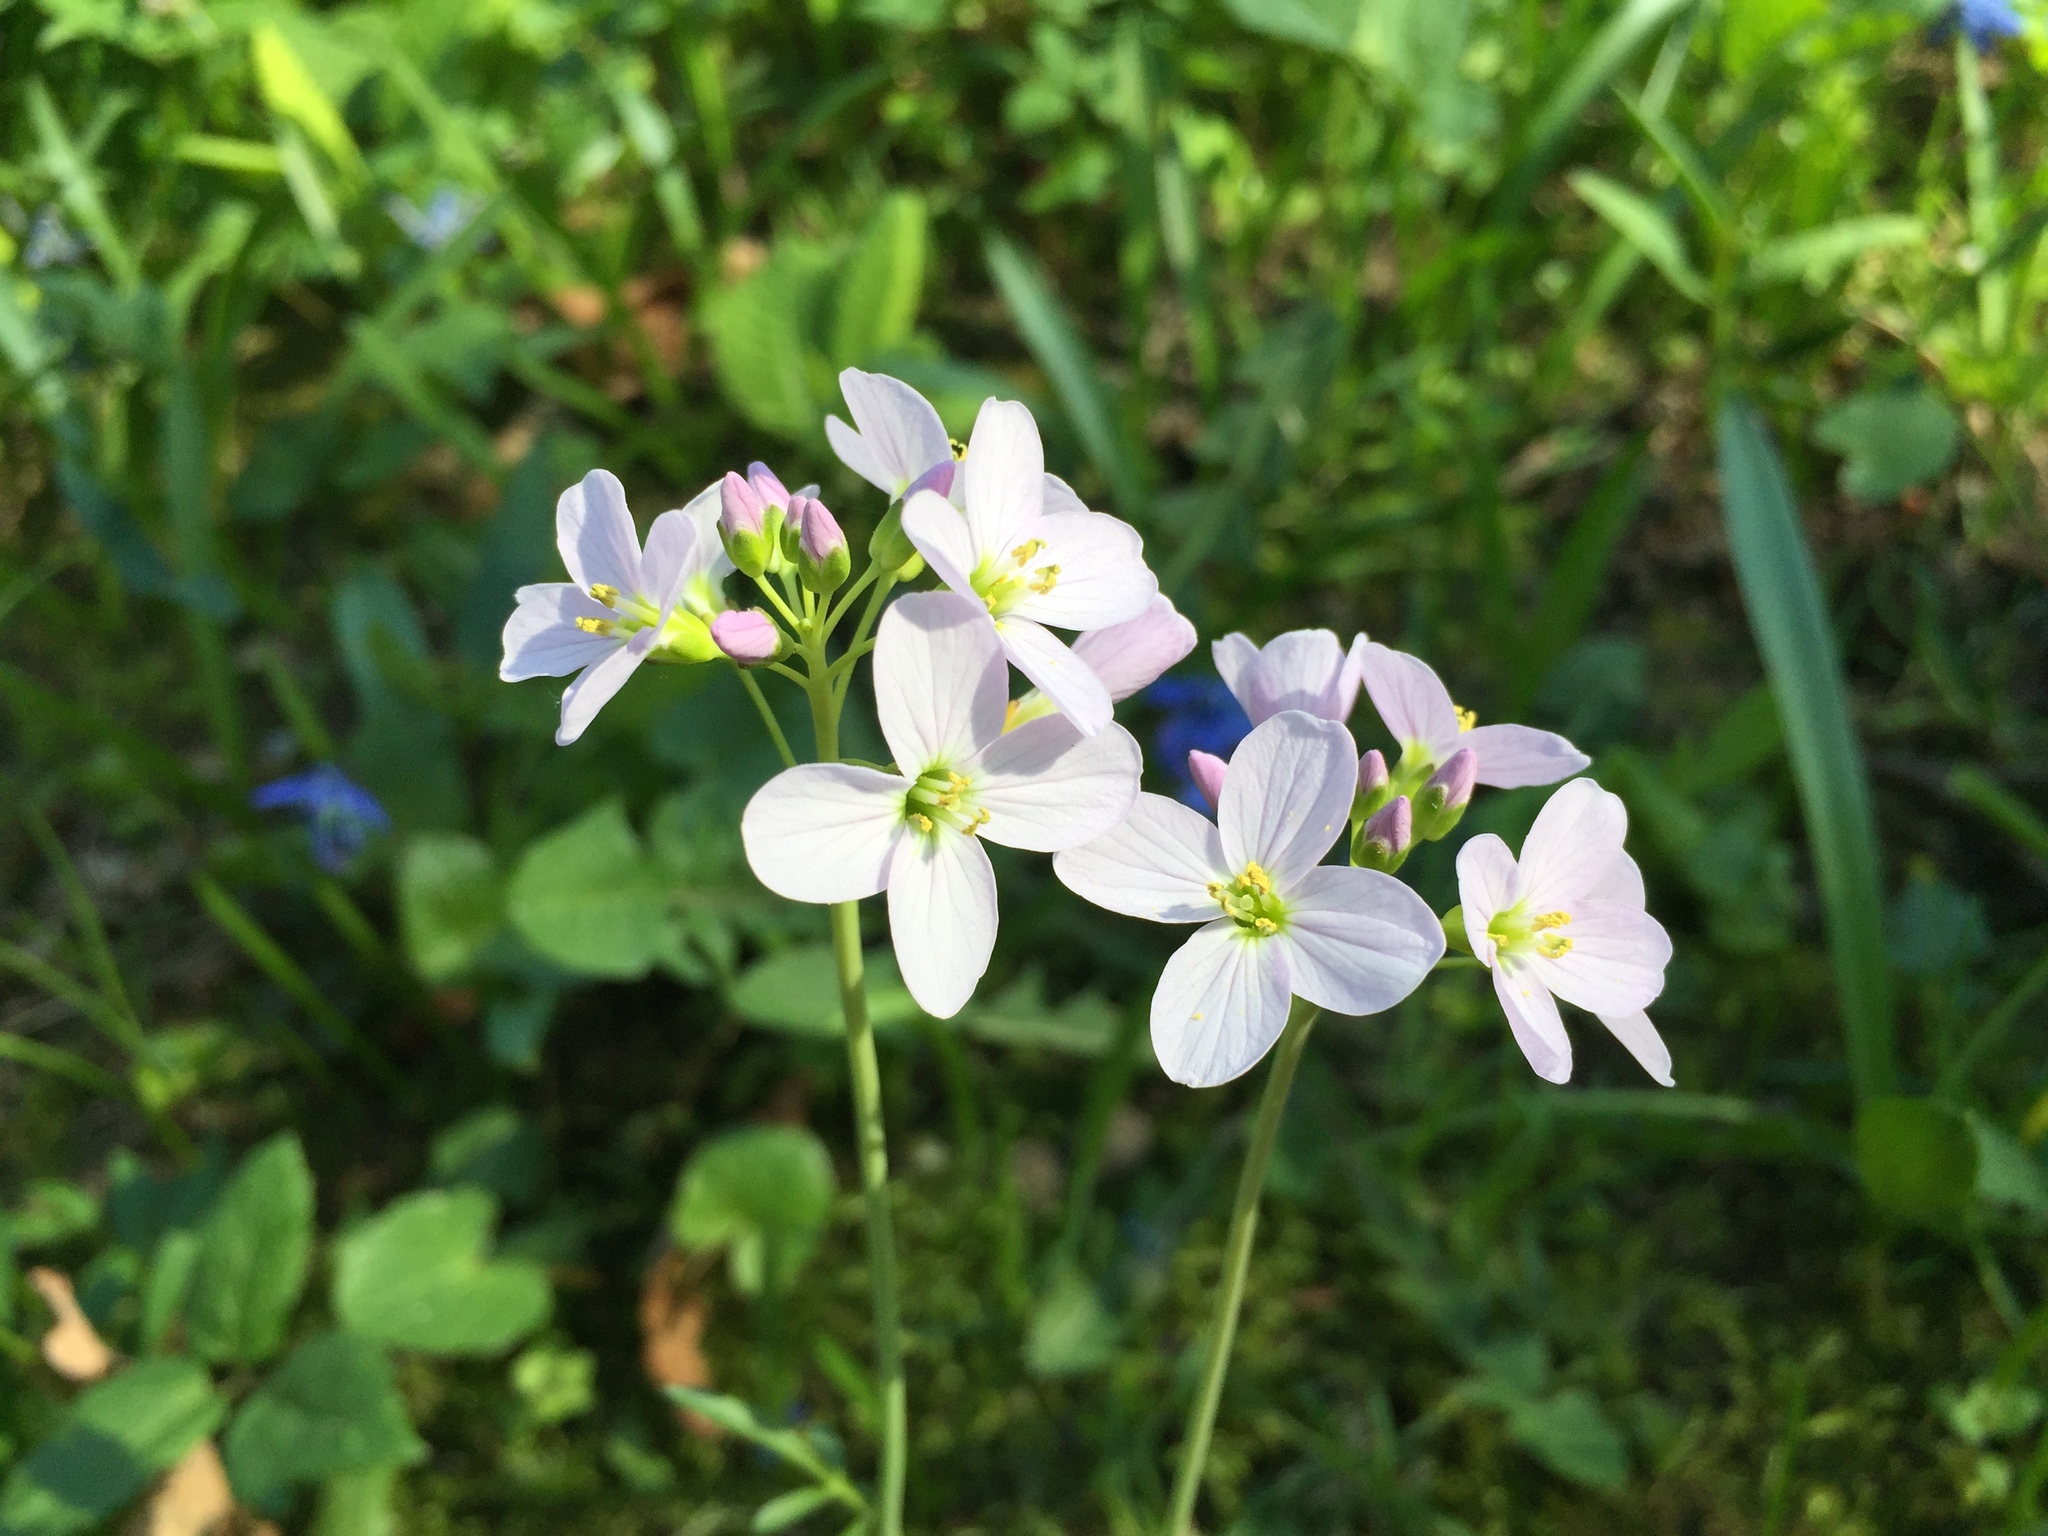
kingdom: Plantae
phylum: Tracheophyta
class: Magnoliopsida
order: Brassicales
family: Brassicaceae
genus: Cardamine
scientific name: Cardamine pratensis
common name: Cuckoo flower
